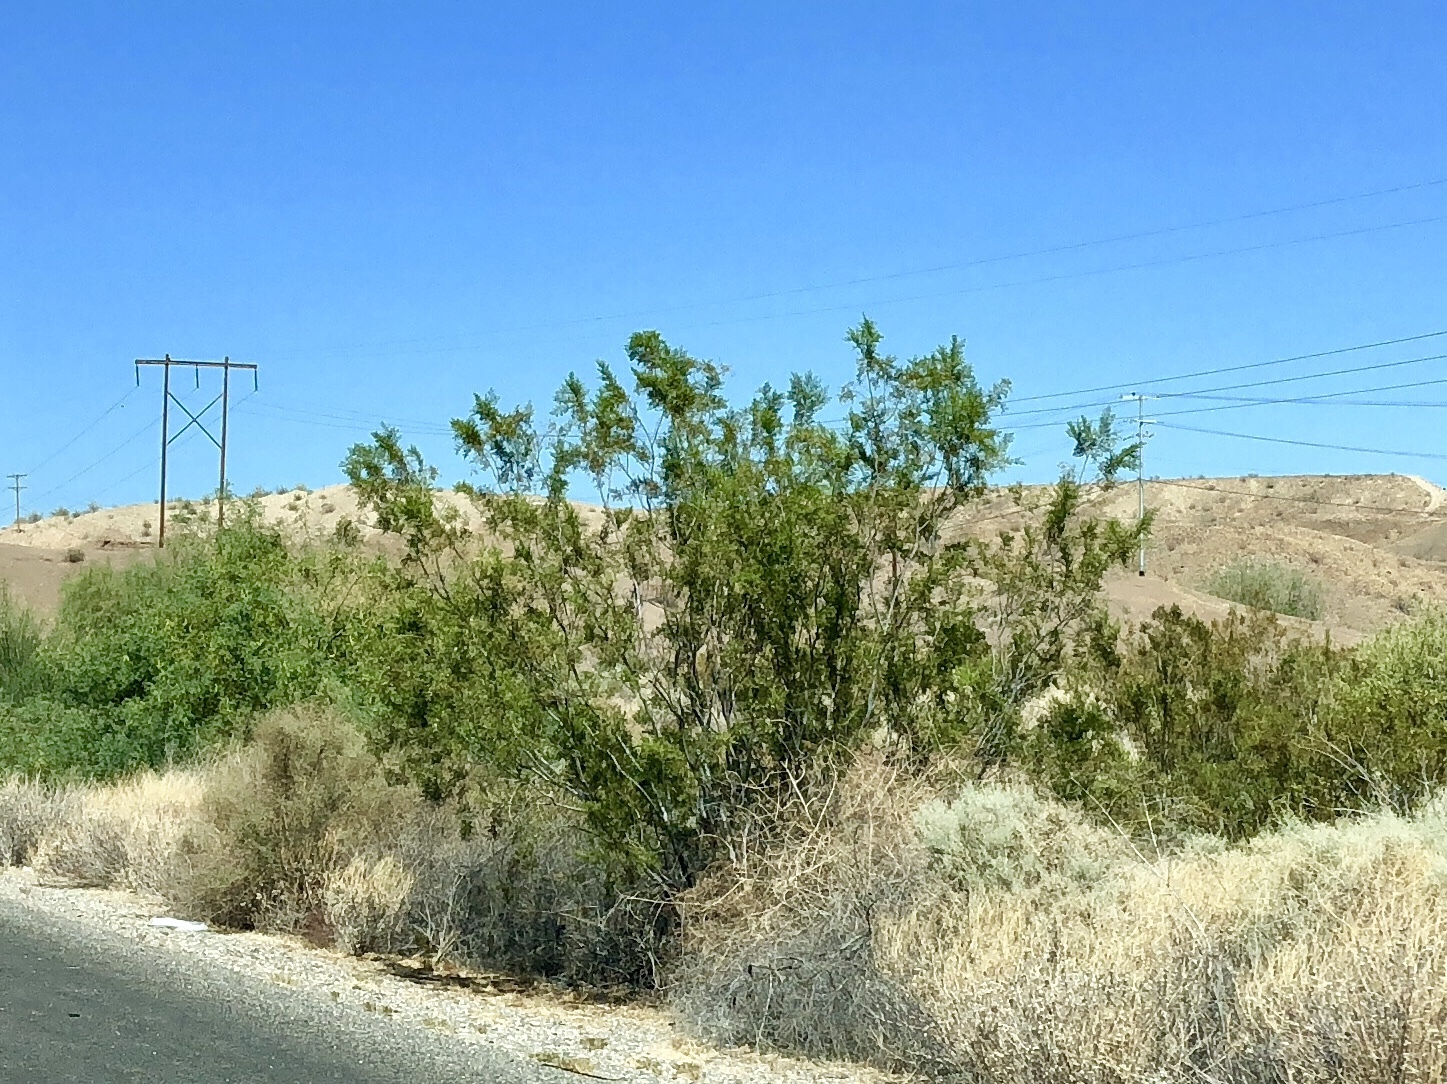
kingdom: Plantae
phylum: Tracheophyta
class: Magnoliopsida
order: Zygophyllales
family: Zygophyllaceae
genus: Larrea
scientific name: Larrea tridentata
